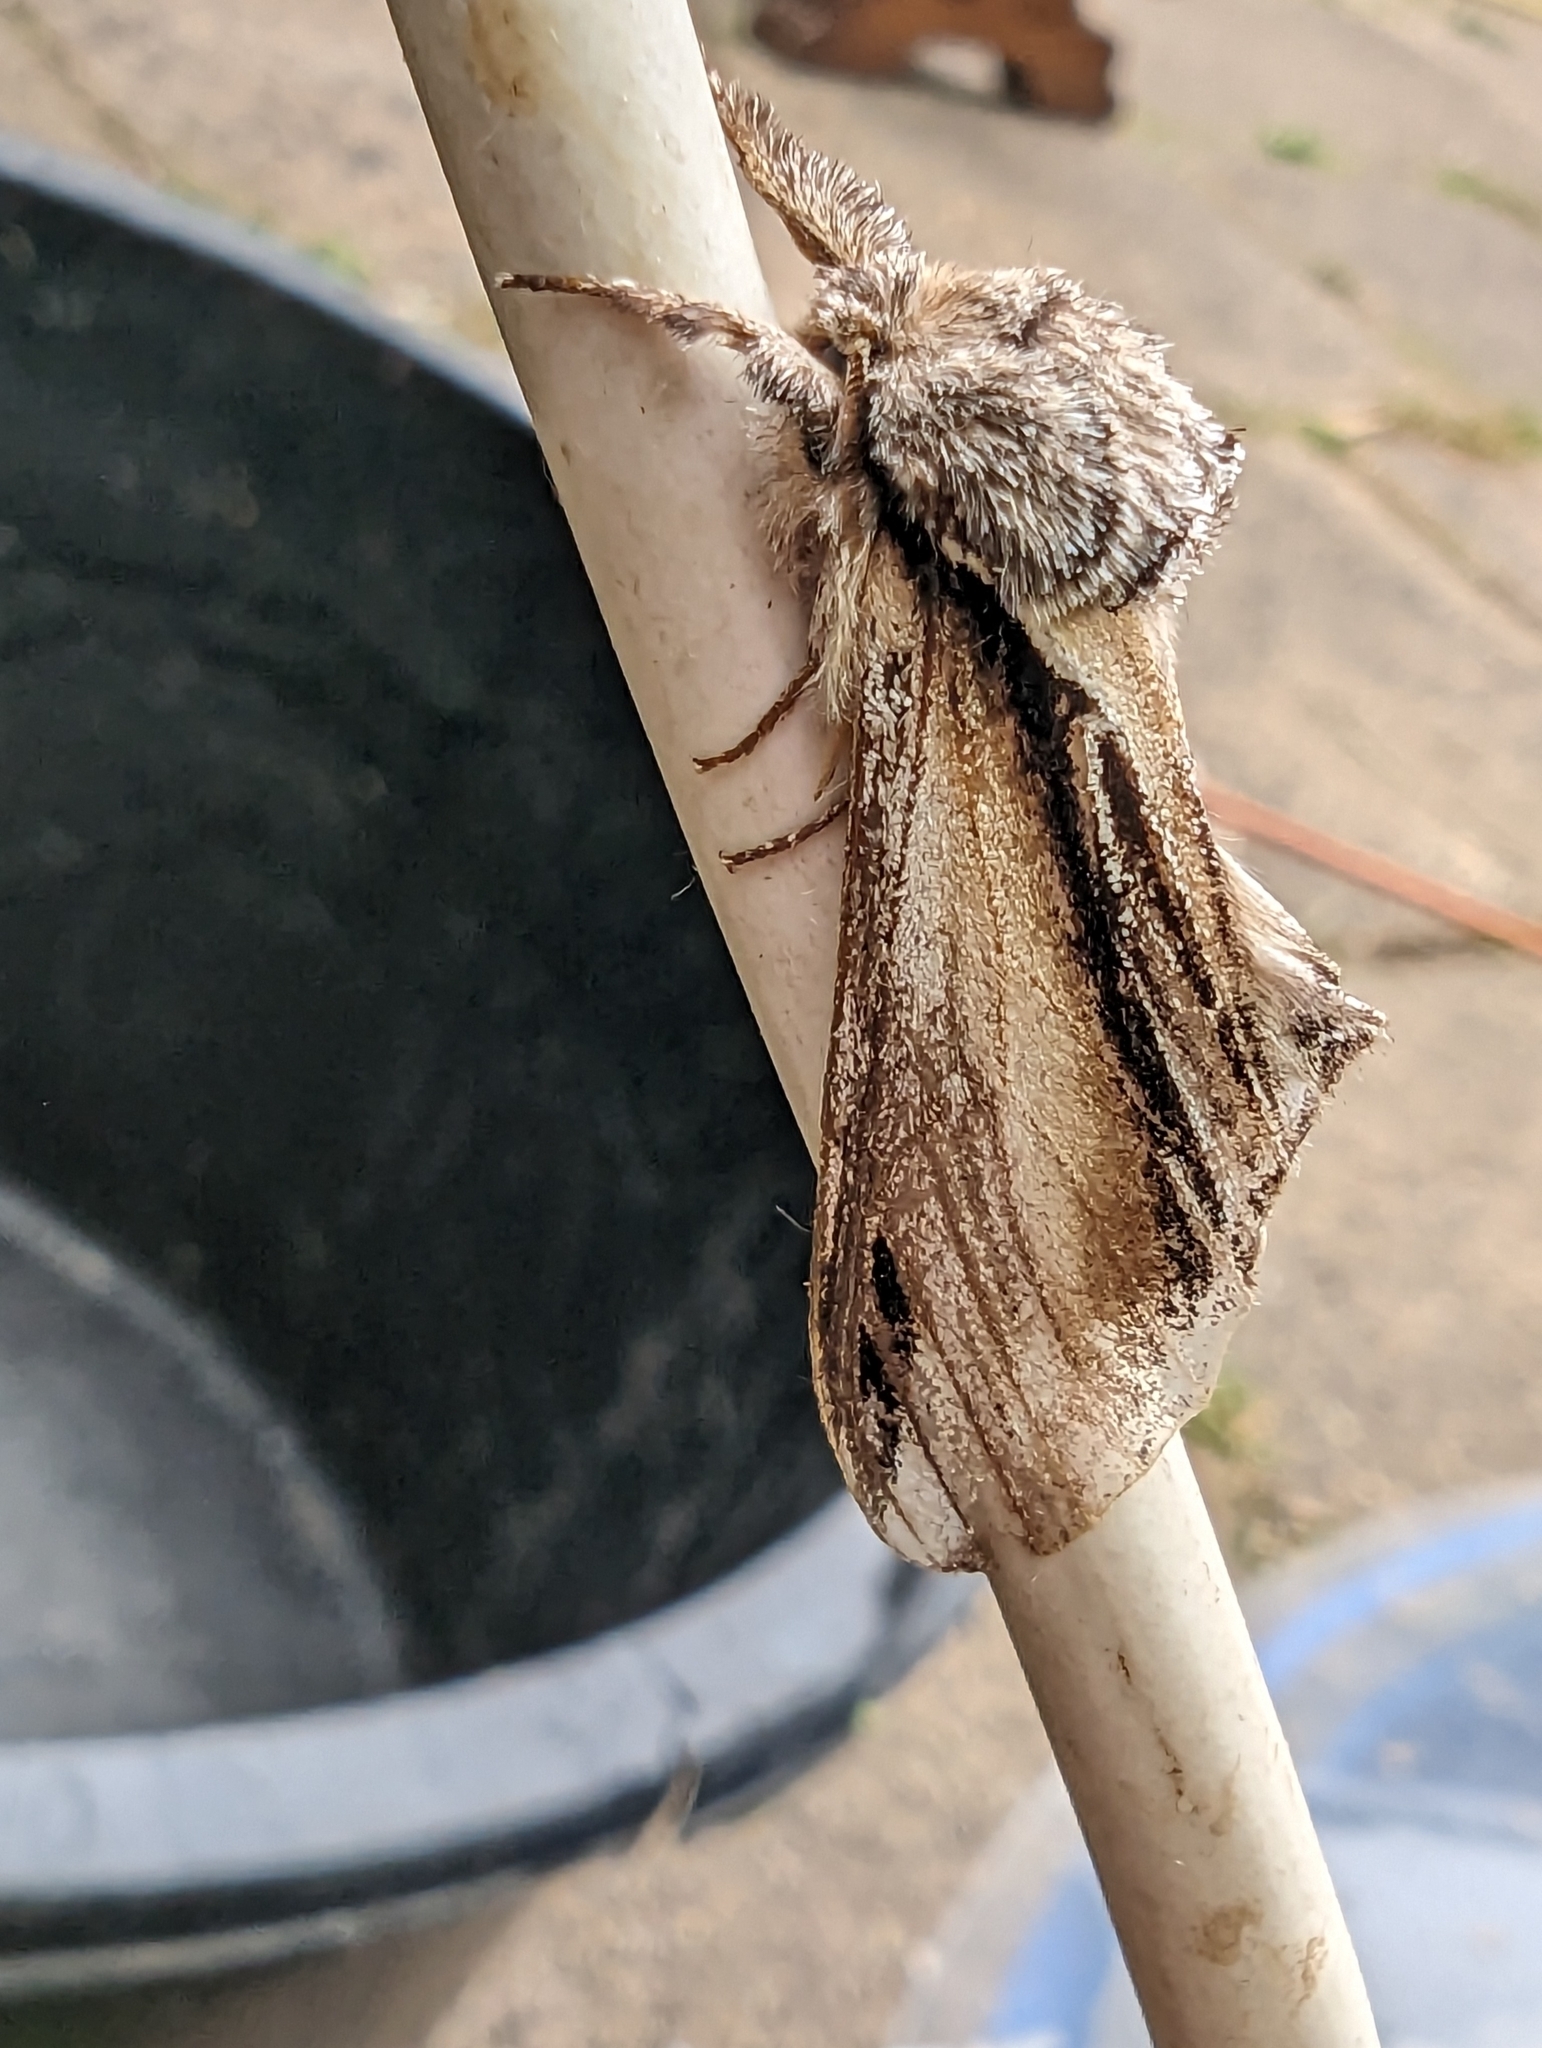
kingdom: Animalia
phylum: Arthropoda
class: Insecta
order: Lepidoptera
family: Notodontidae
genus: Pheosia
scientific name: Pheosia tremula
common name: Swallow prominent
